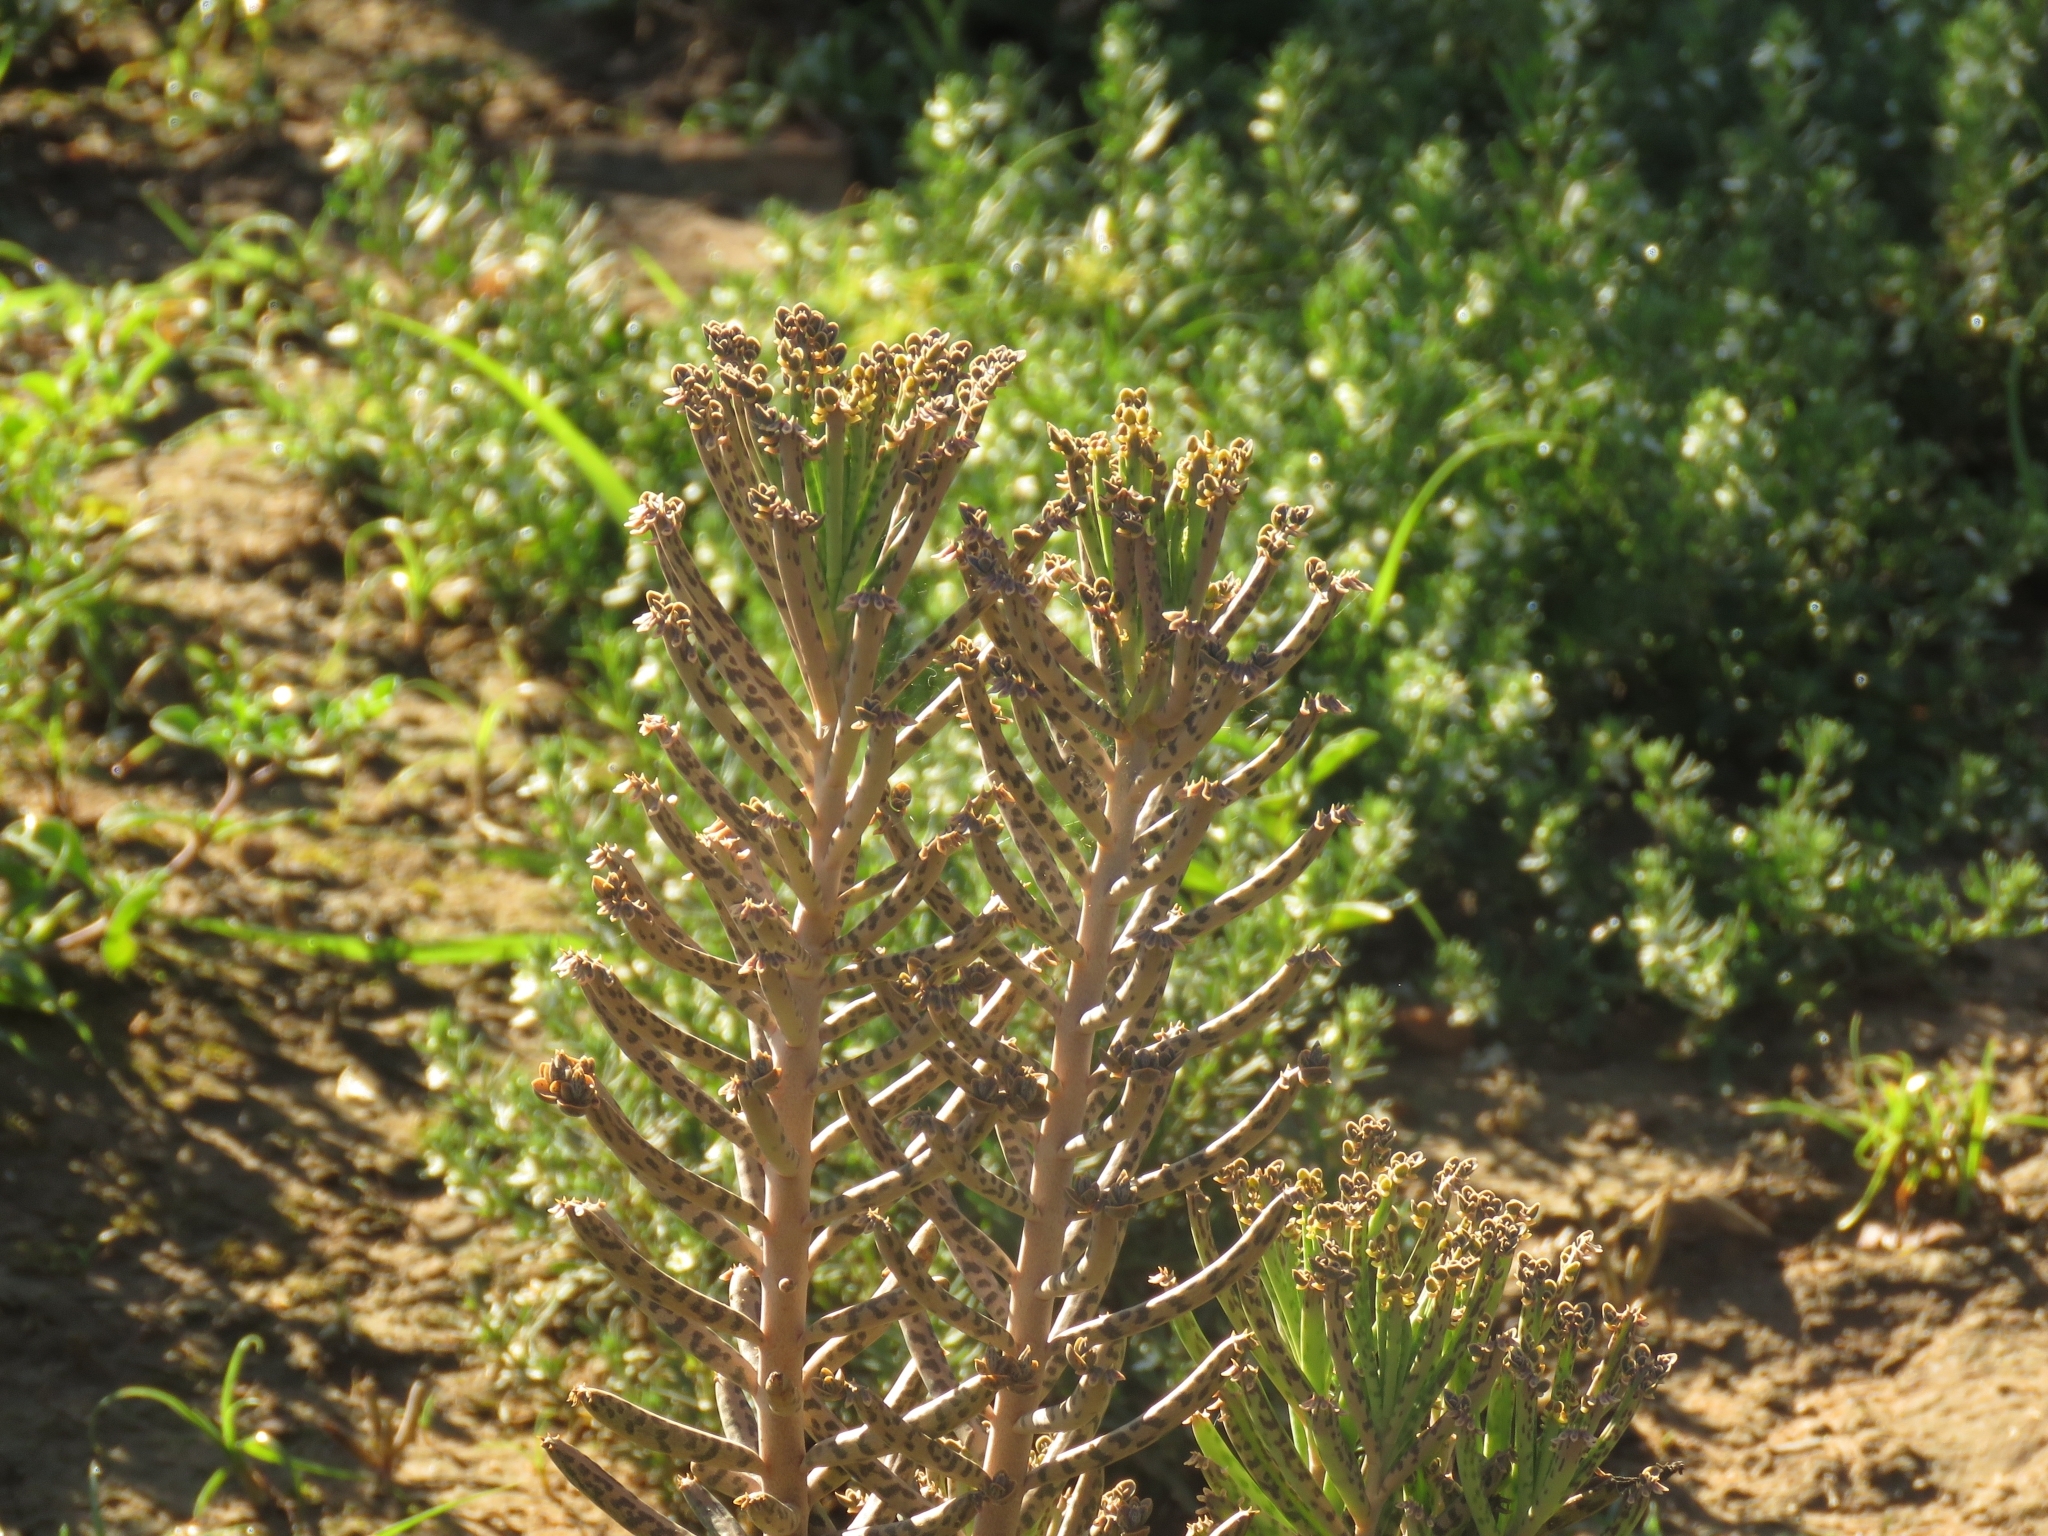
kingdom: Plantae
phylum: Tracheophyta
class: Magnoliopsida
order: Saxifragales
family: Crassulaceae
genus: Kalanchoe
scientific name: Kalanchoe delagoensis
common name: Chandelier plant
